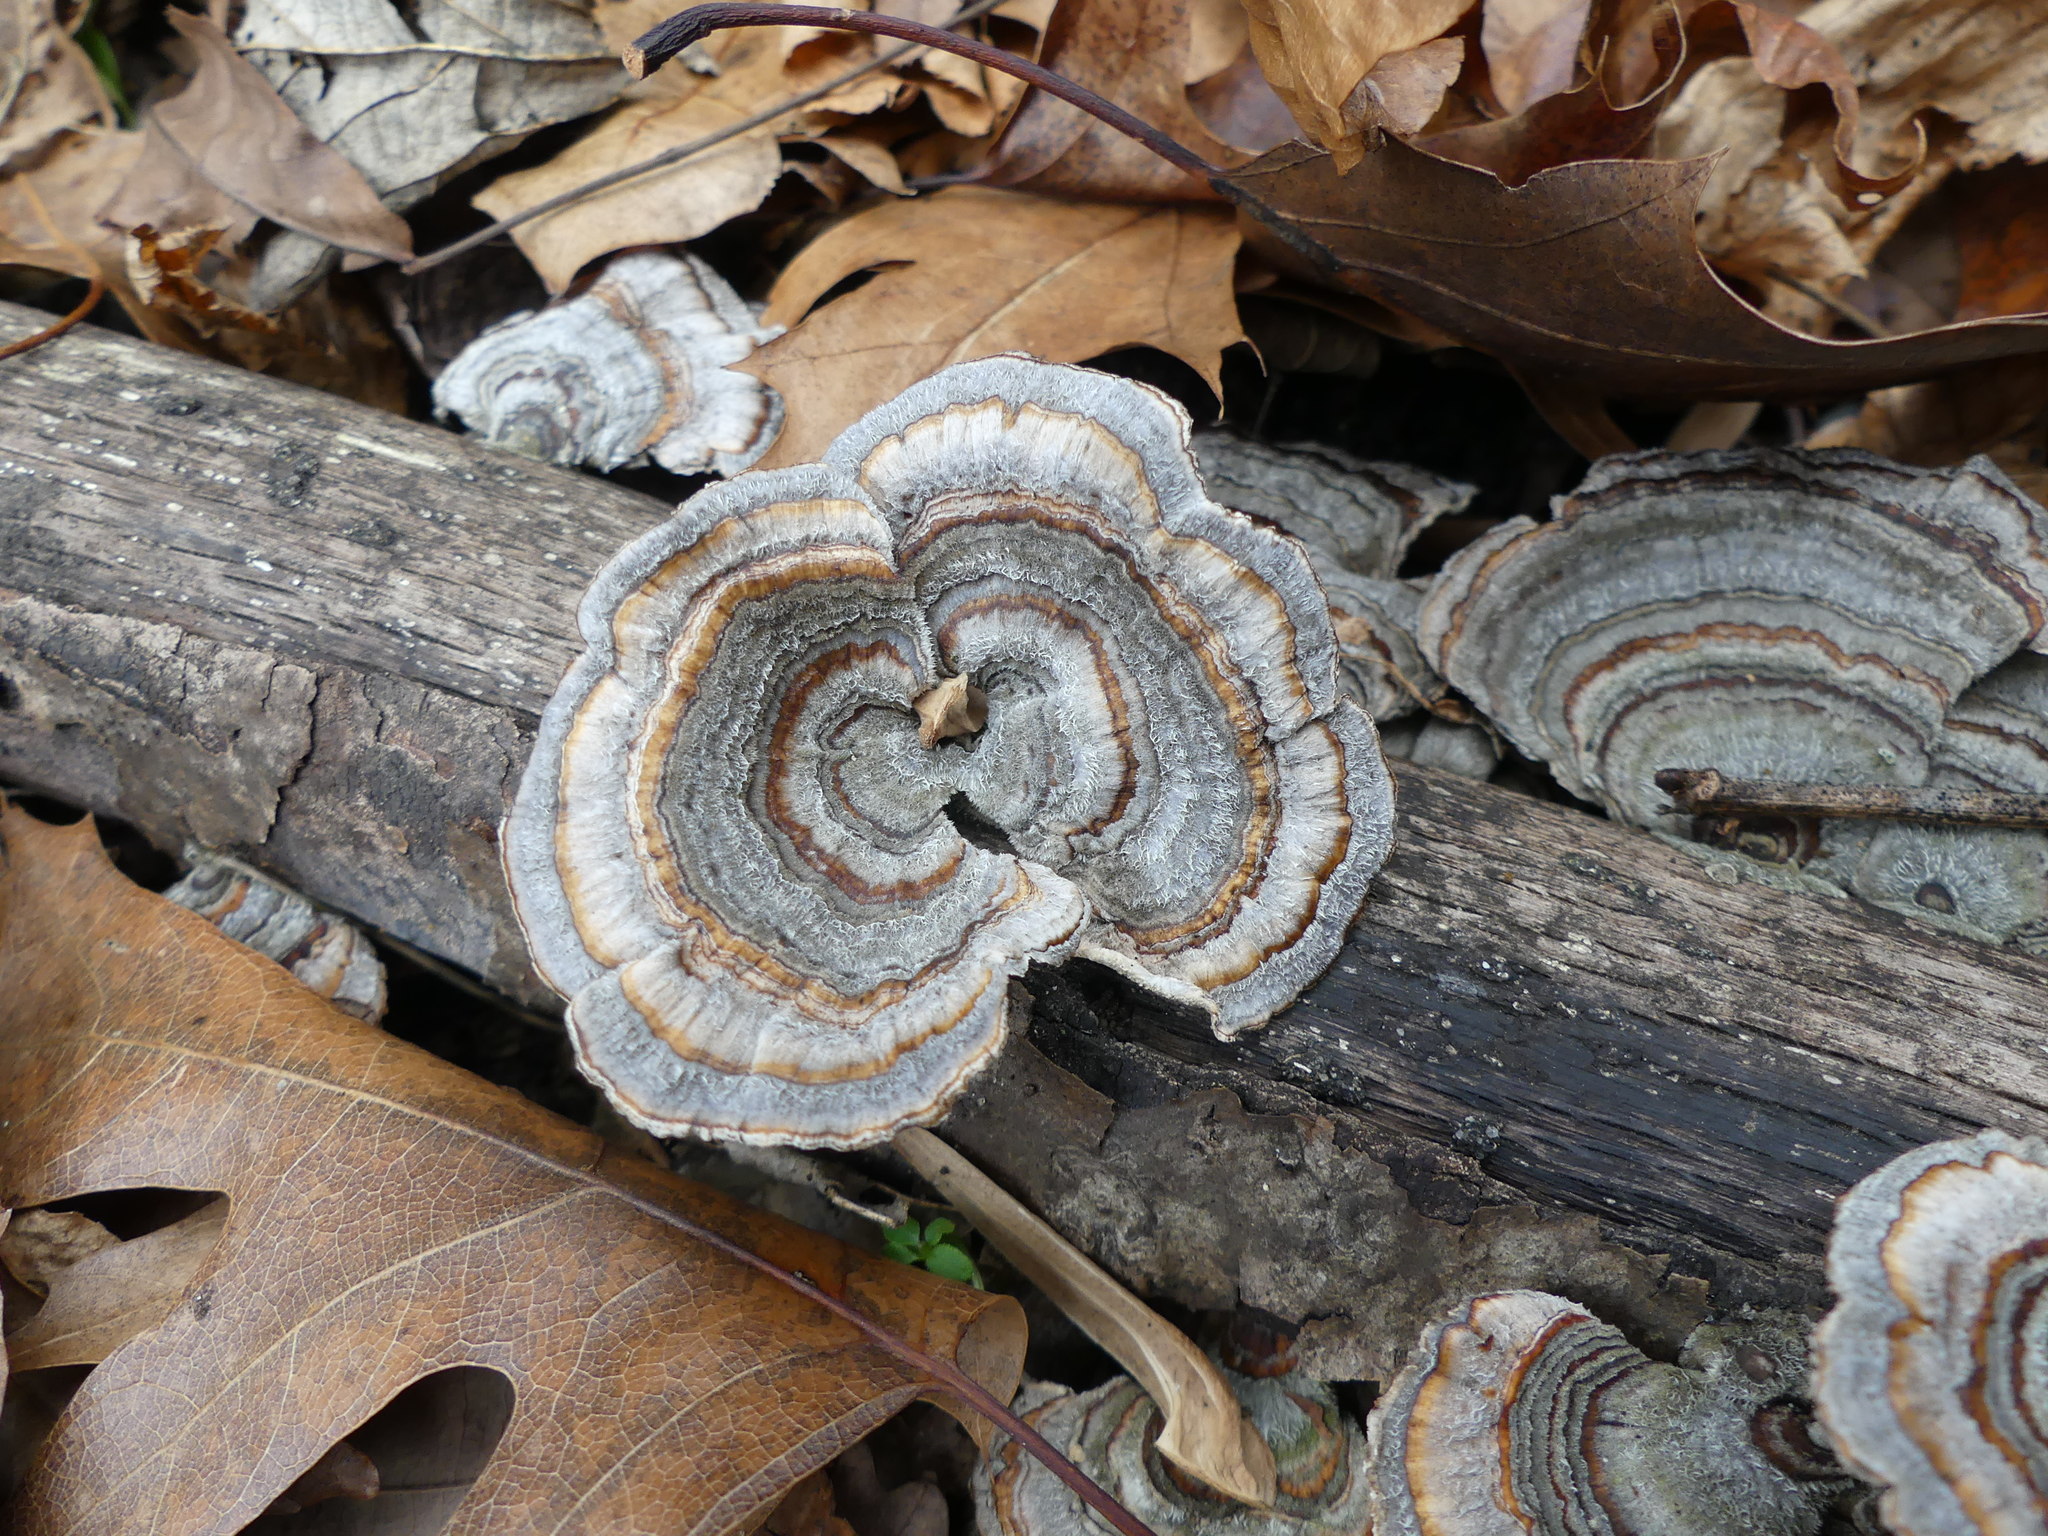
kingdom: Fungi
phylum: Basidiomycota
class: Agaricomycetes
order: Polyporales
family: Polyporaceae
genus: Trametes
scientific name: Trametes versicolor
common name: Turkeytail
